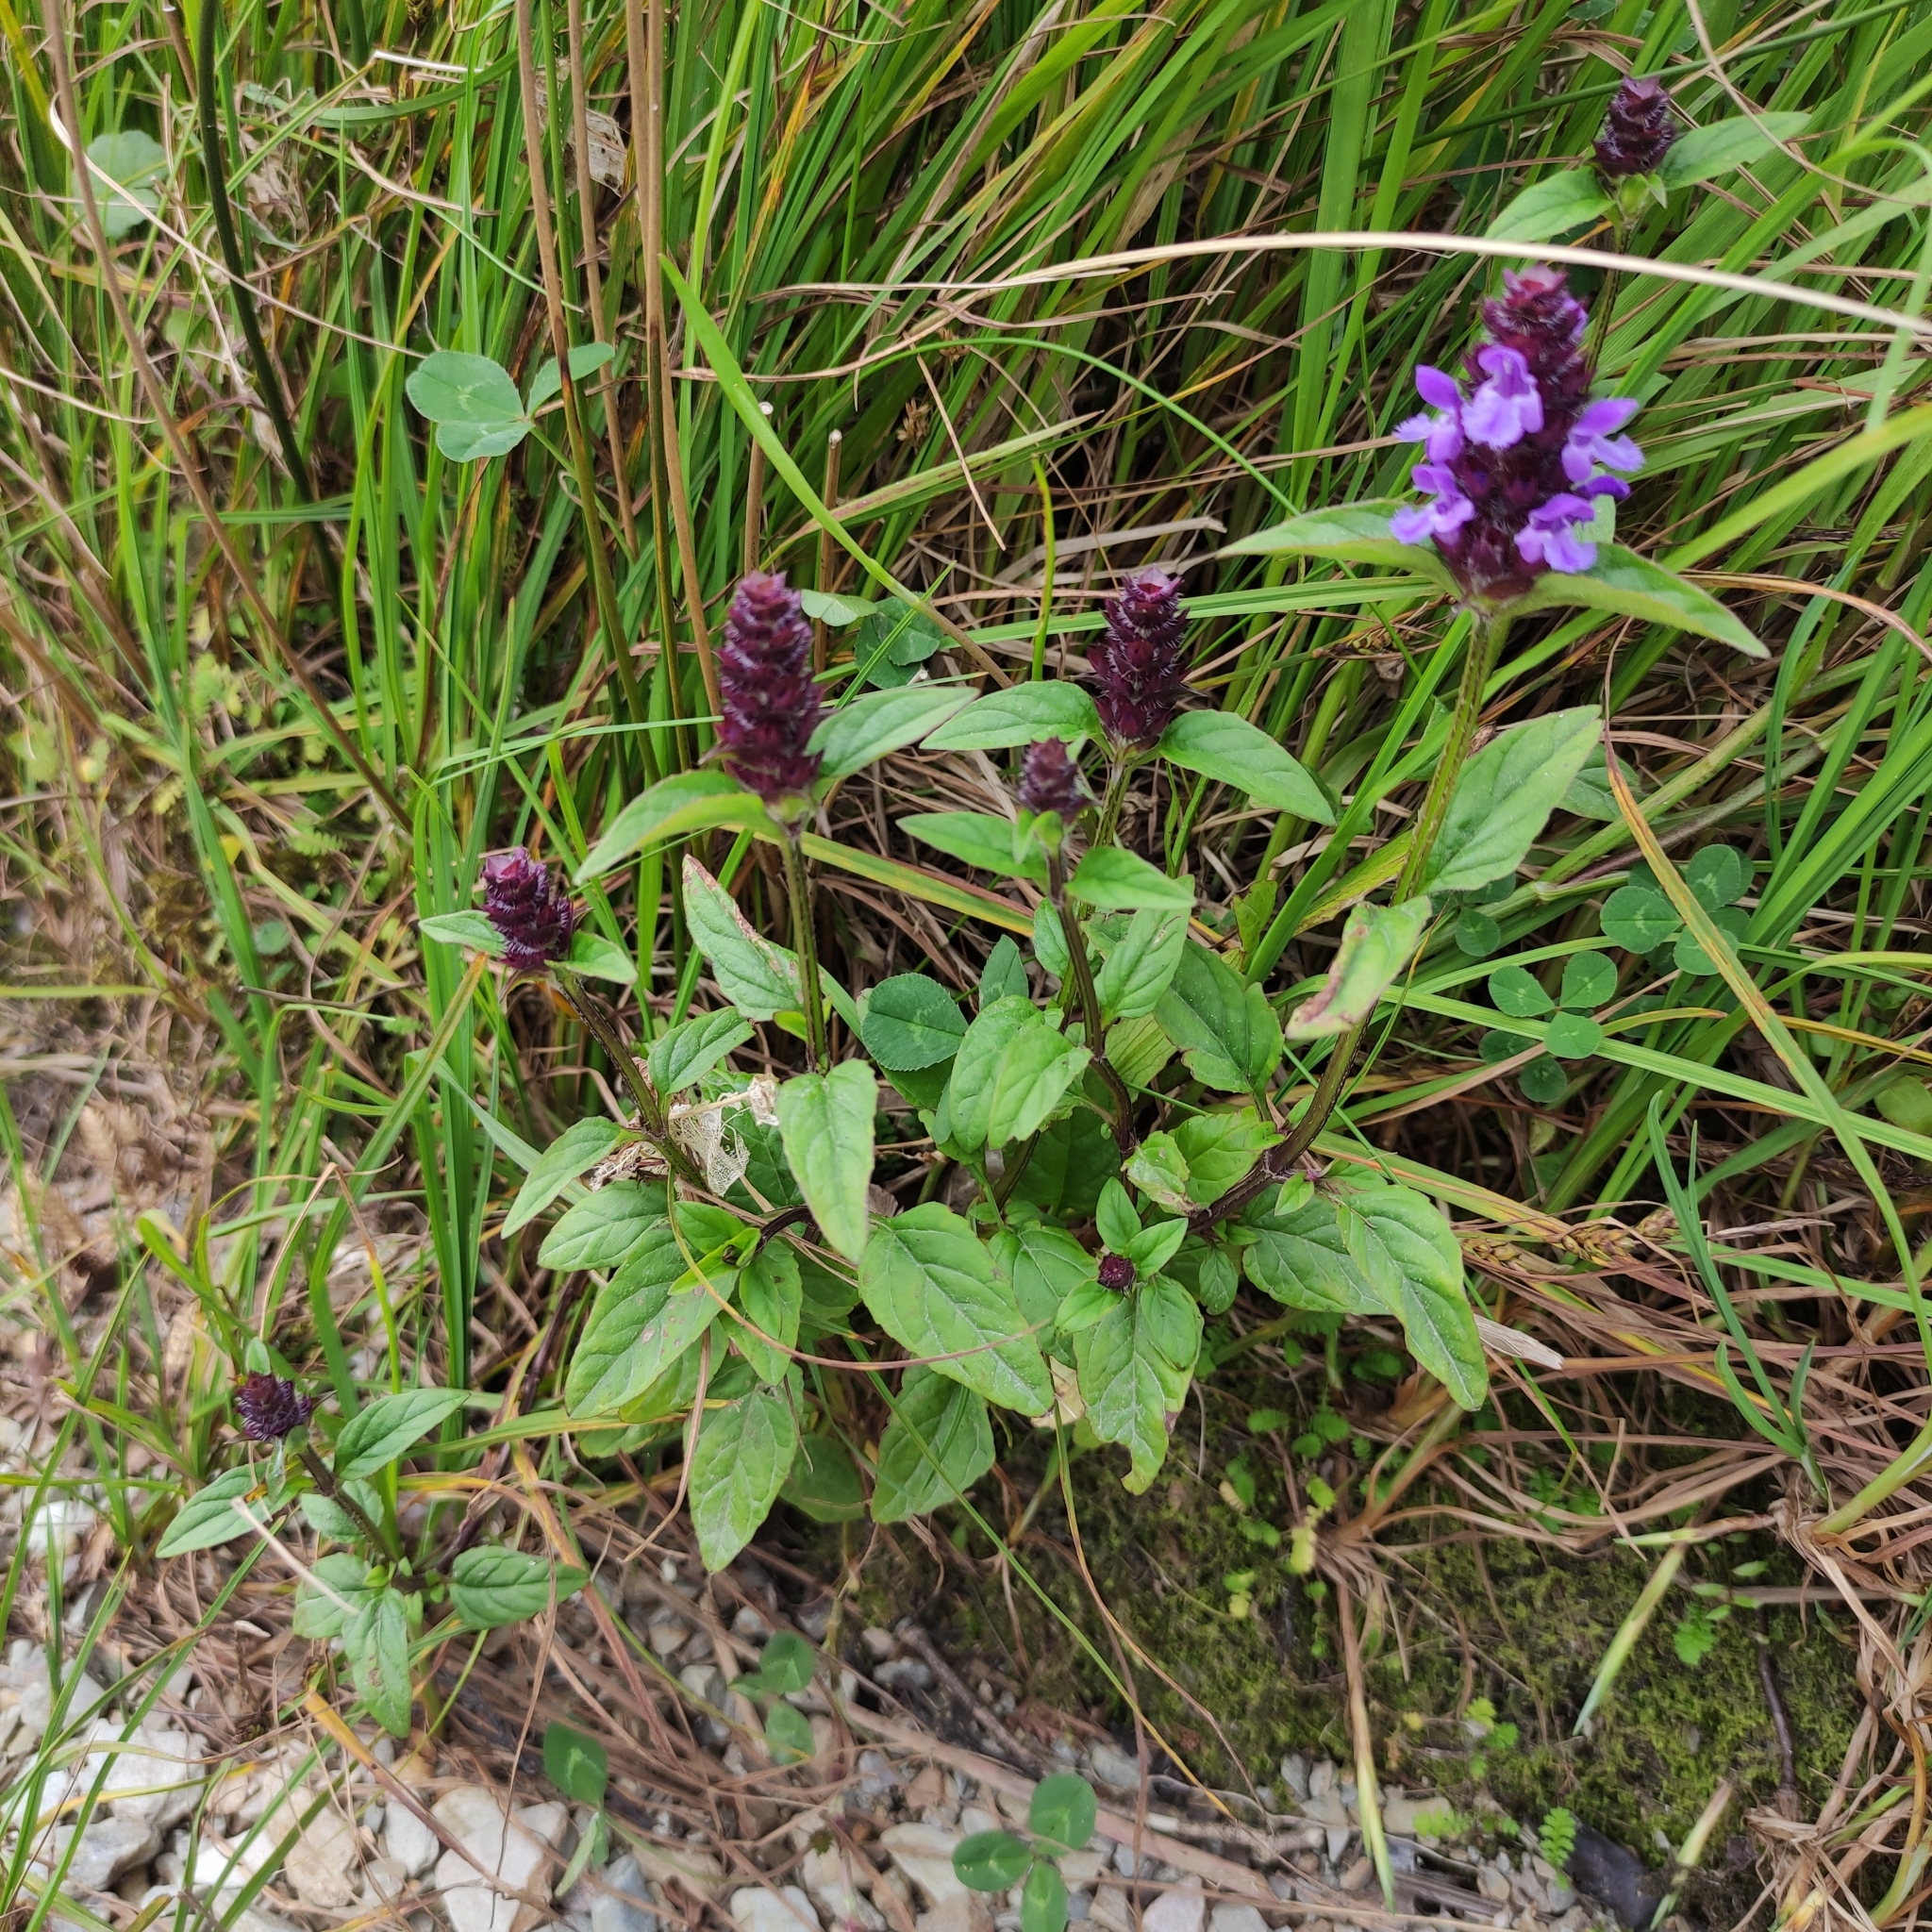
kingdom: Plantae
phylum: Tracheophyta
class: Magnoliopsida
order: Lamiales
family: Lamiaceae
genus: Prunella
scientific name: Prunella vulgaris
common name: Heal-all
